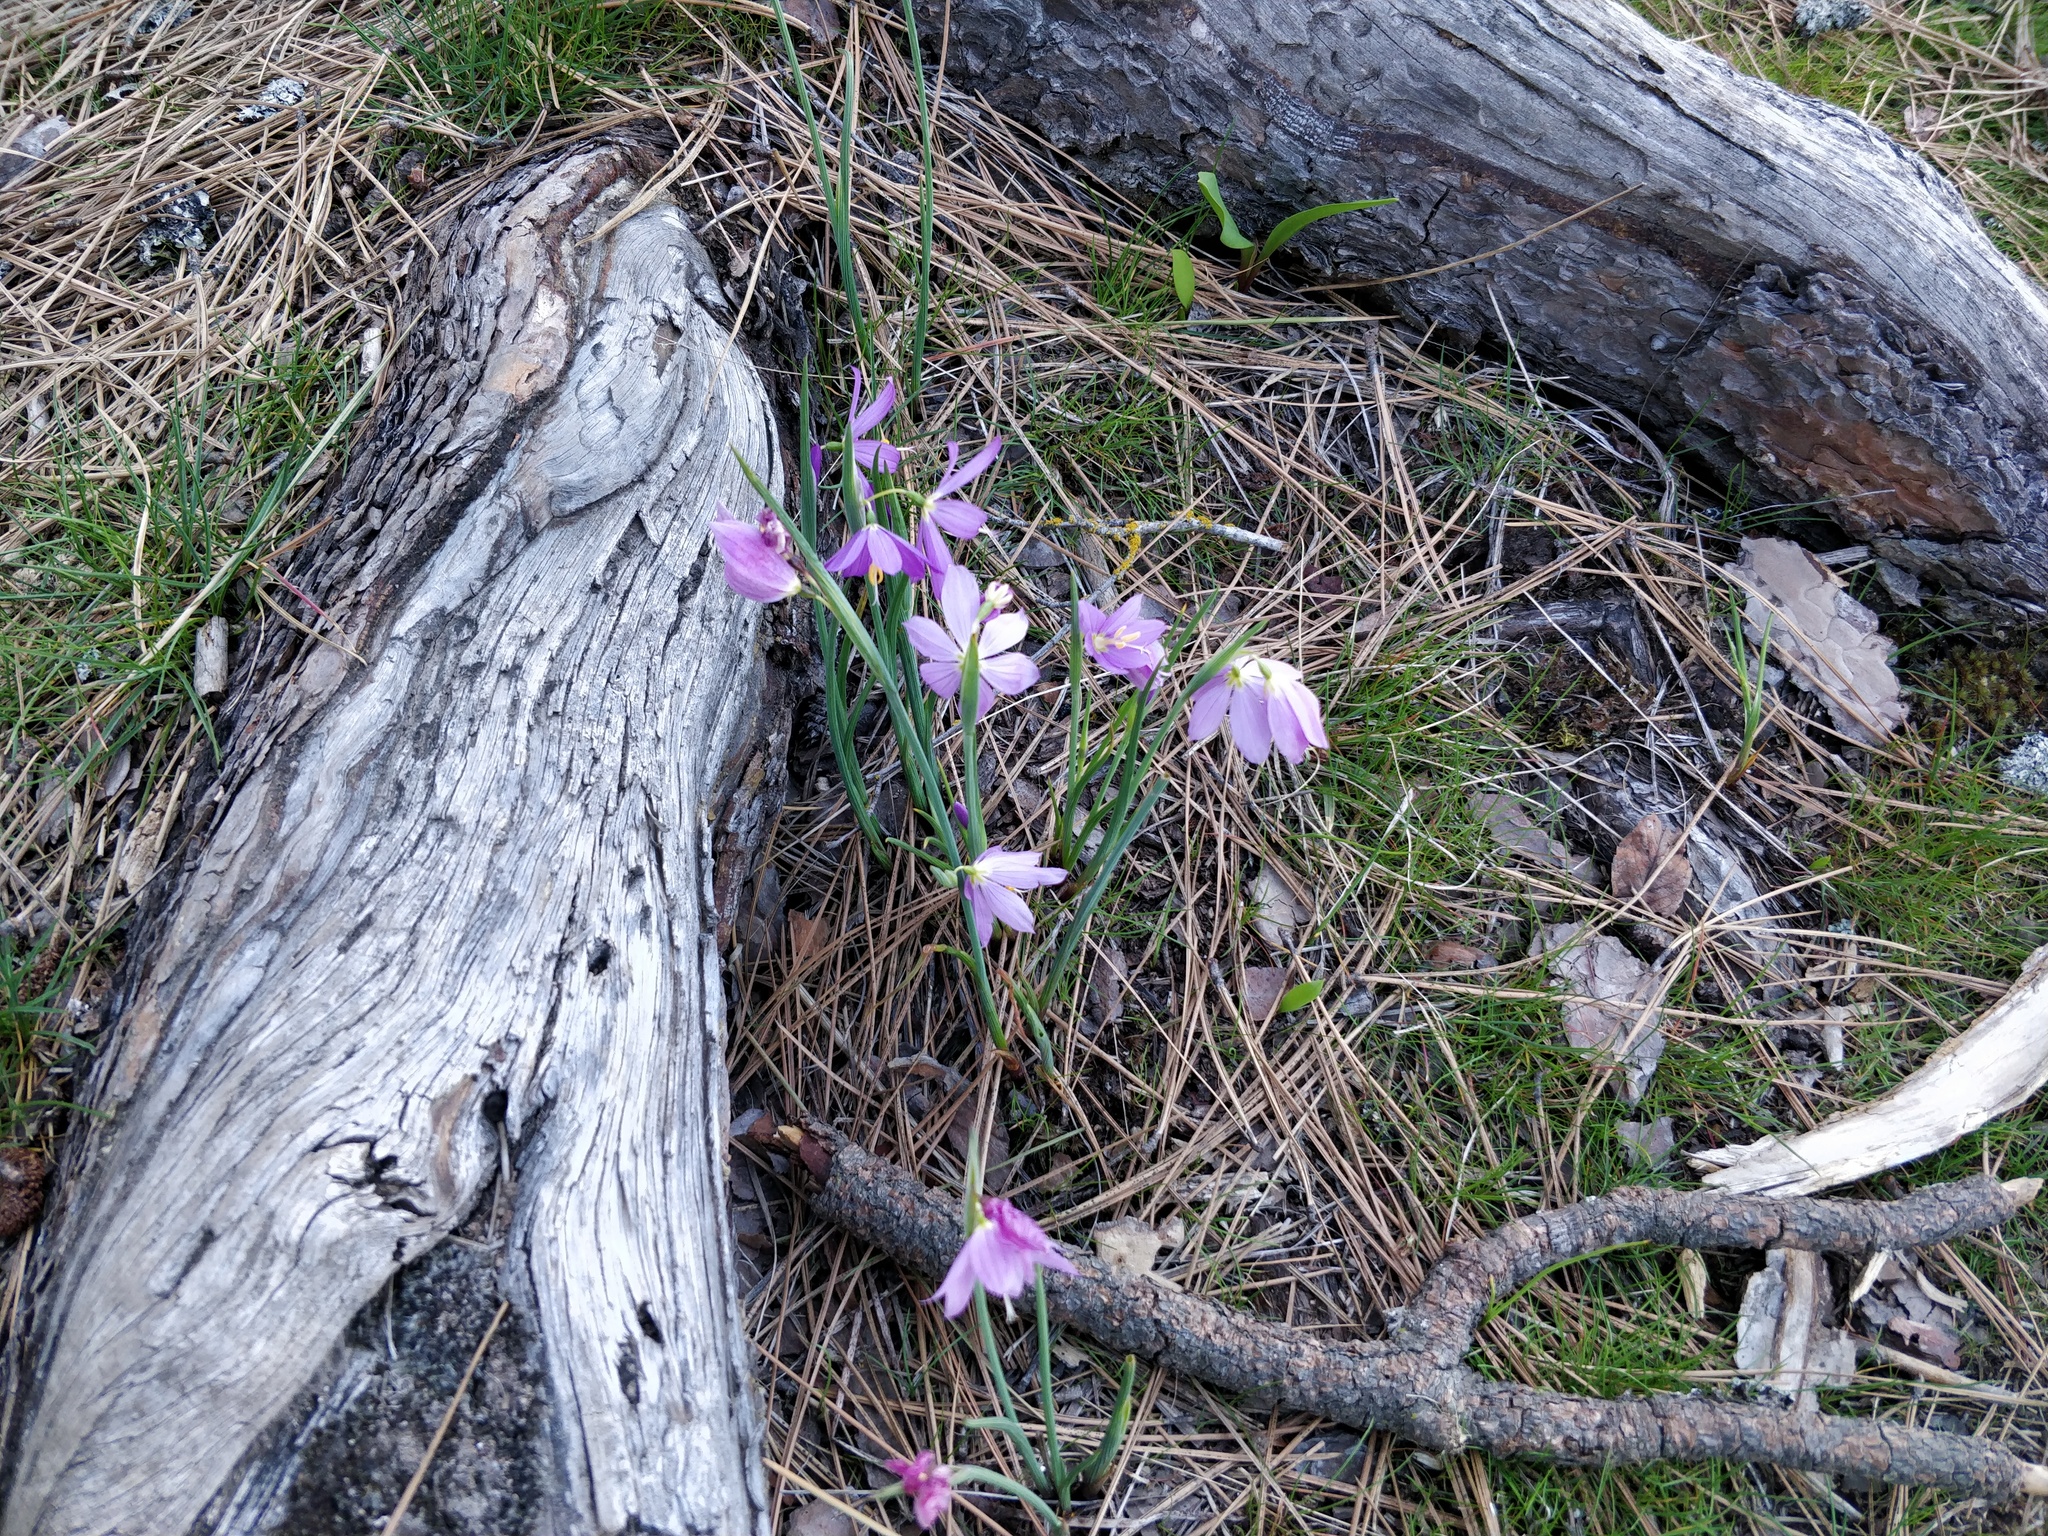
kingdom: Plantae
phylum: Tracheophyta
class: Liliopsida
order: Asparagales
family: Iridaceae
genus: Olsynium
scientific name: Olsynium douglasii
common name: Douglas' grasswidow
